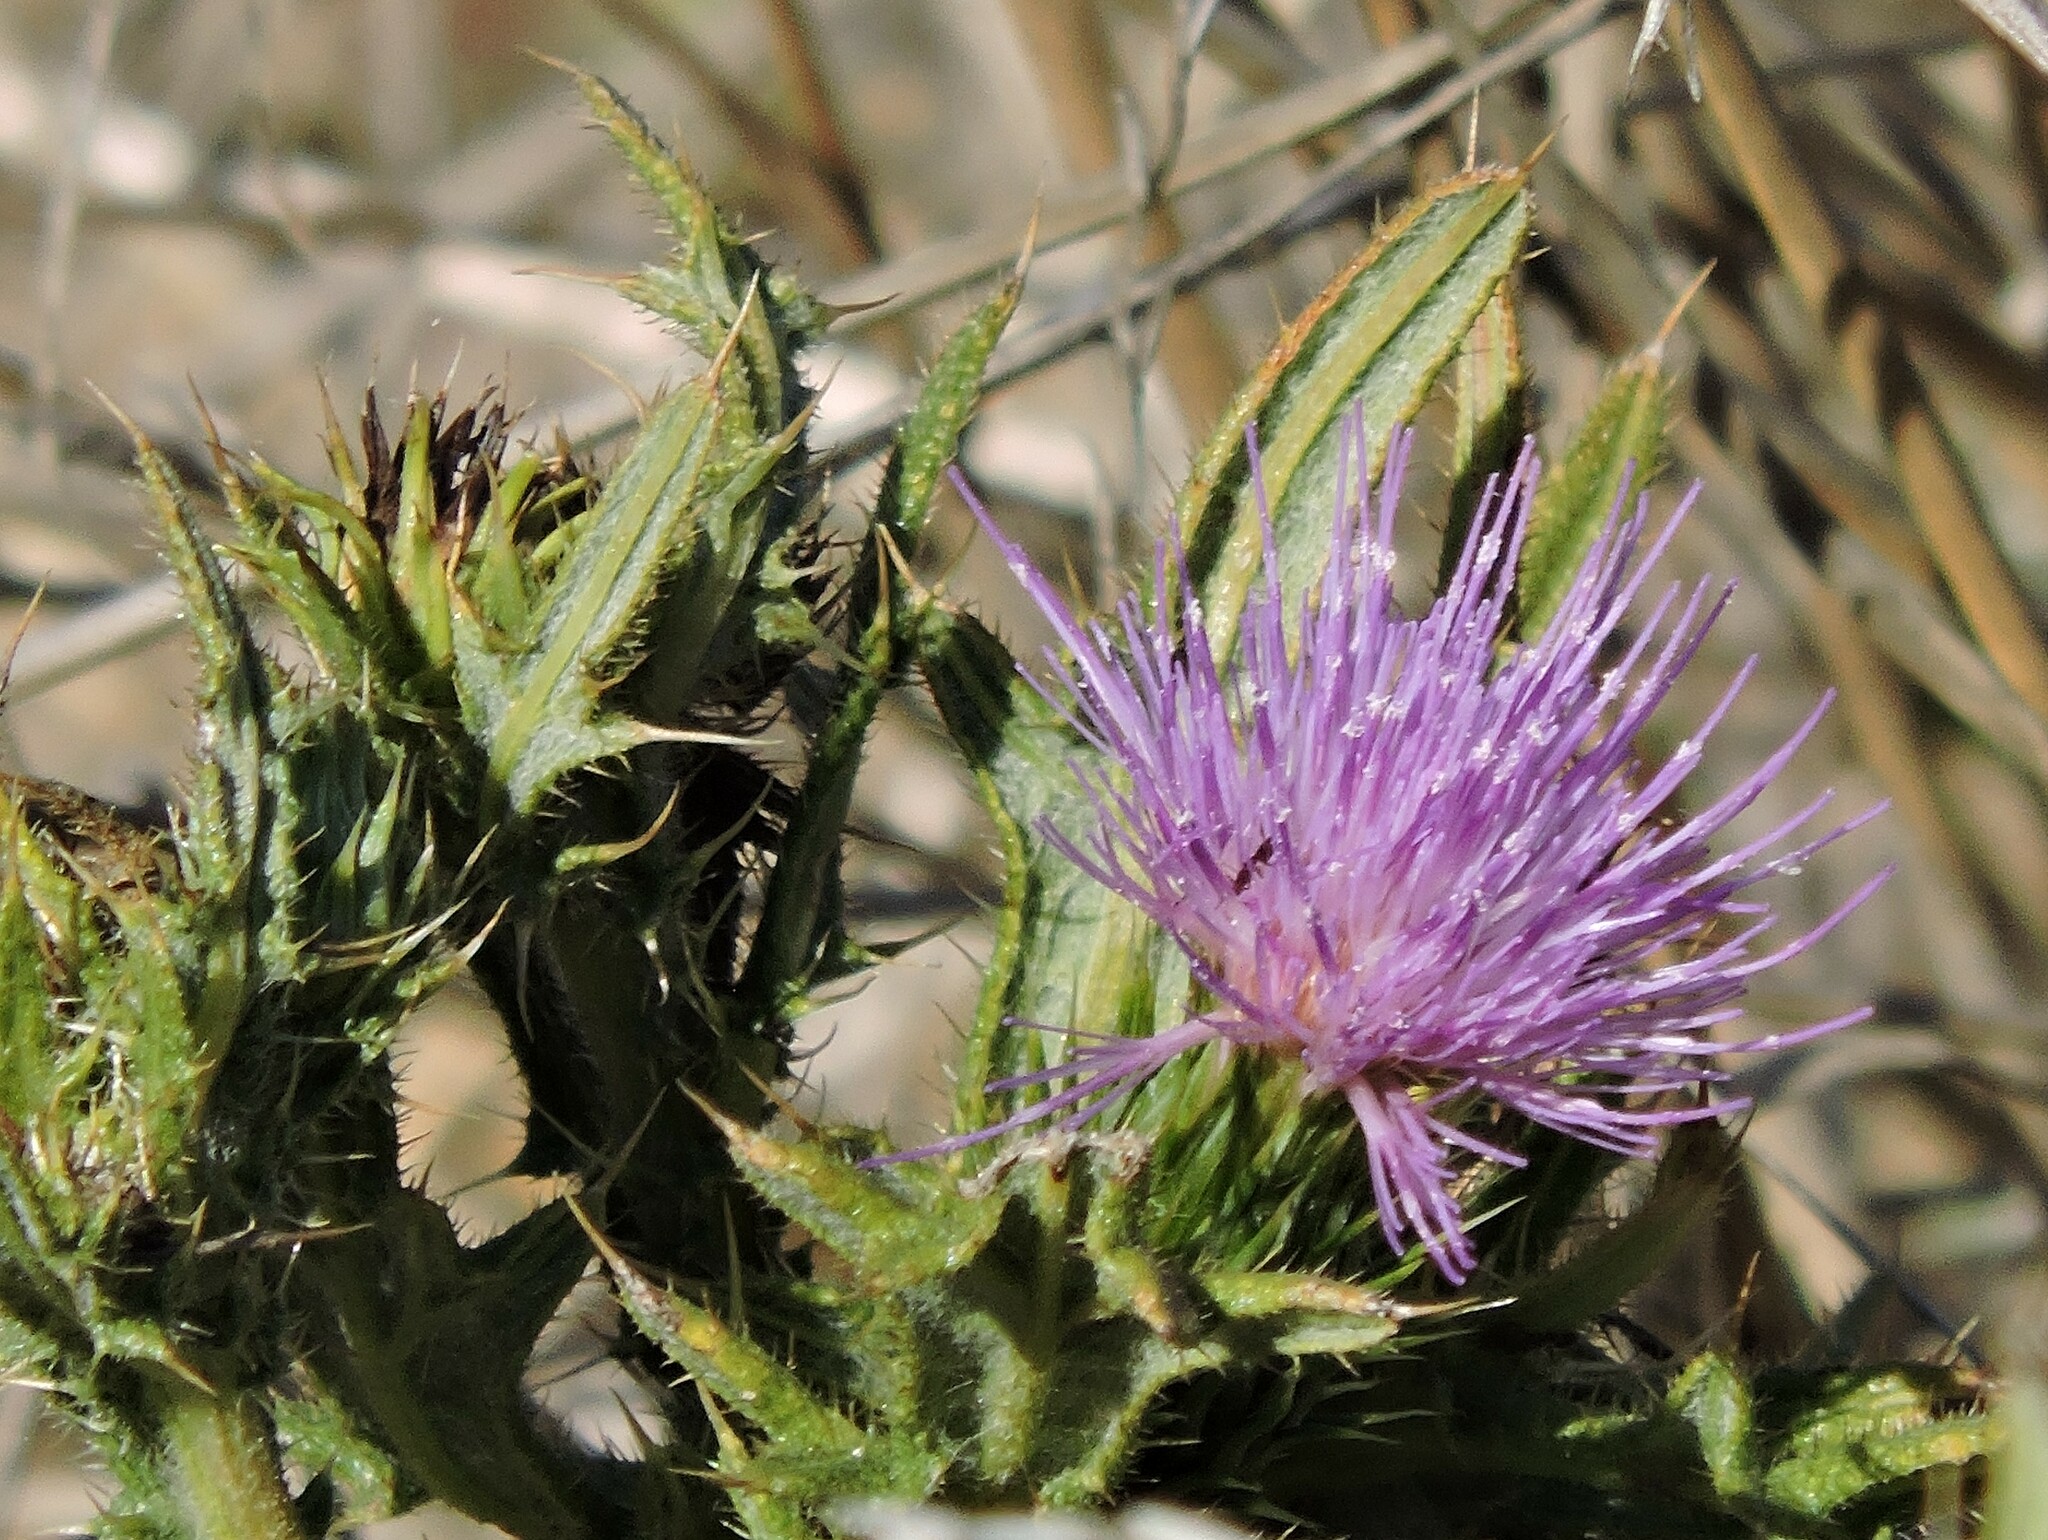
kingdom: Plantae
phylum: Tracheophyta
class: Magnoliopsida
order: Asterales
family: Asteraceae
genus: Cirsium
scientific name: Cirsium vulgare
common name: Bull thistle
